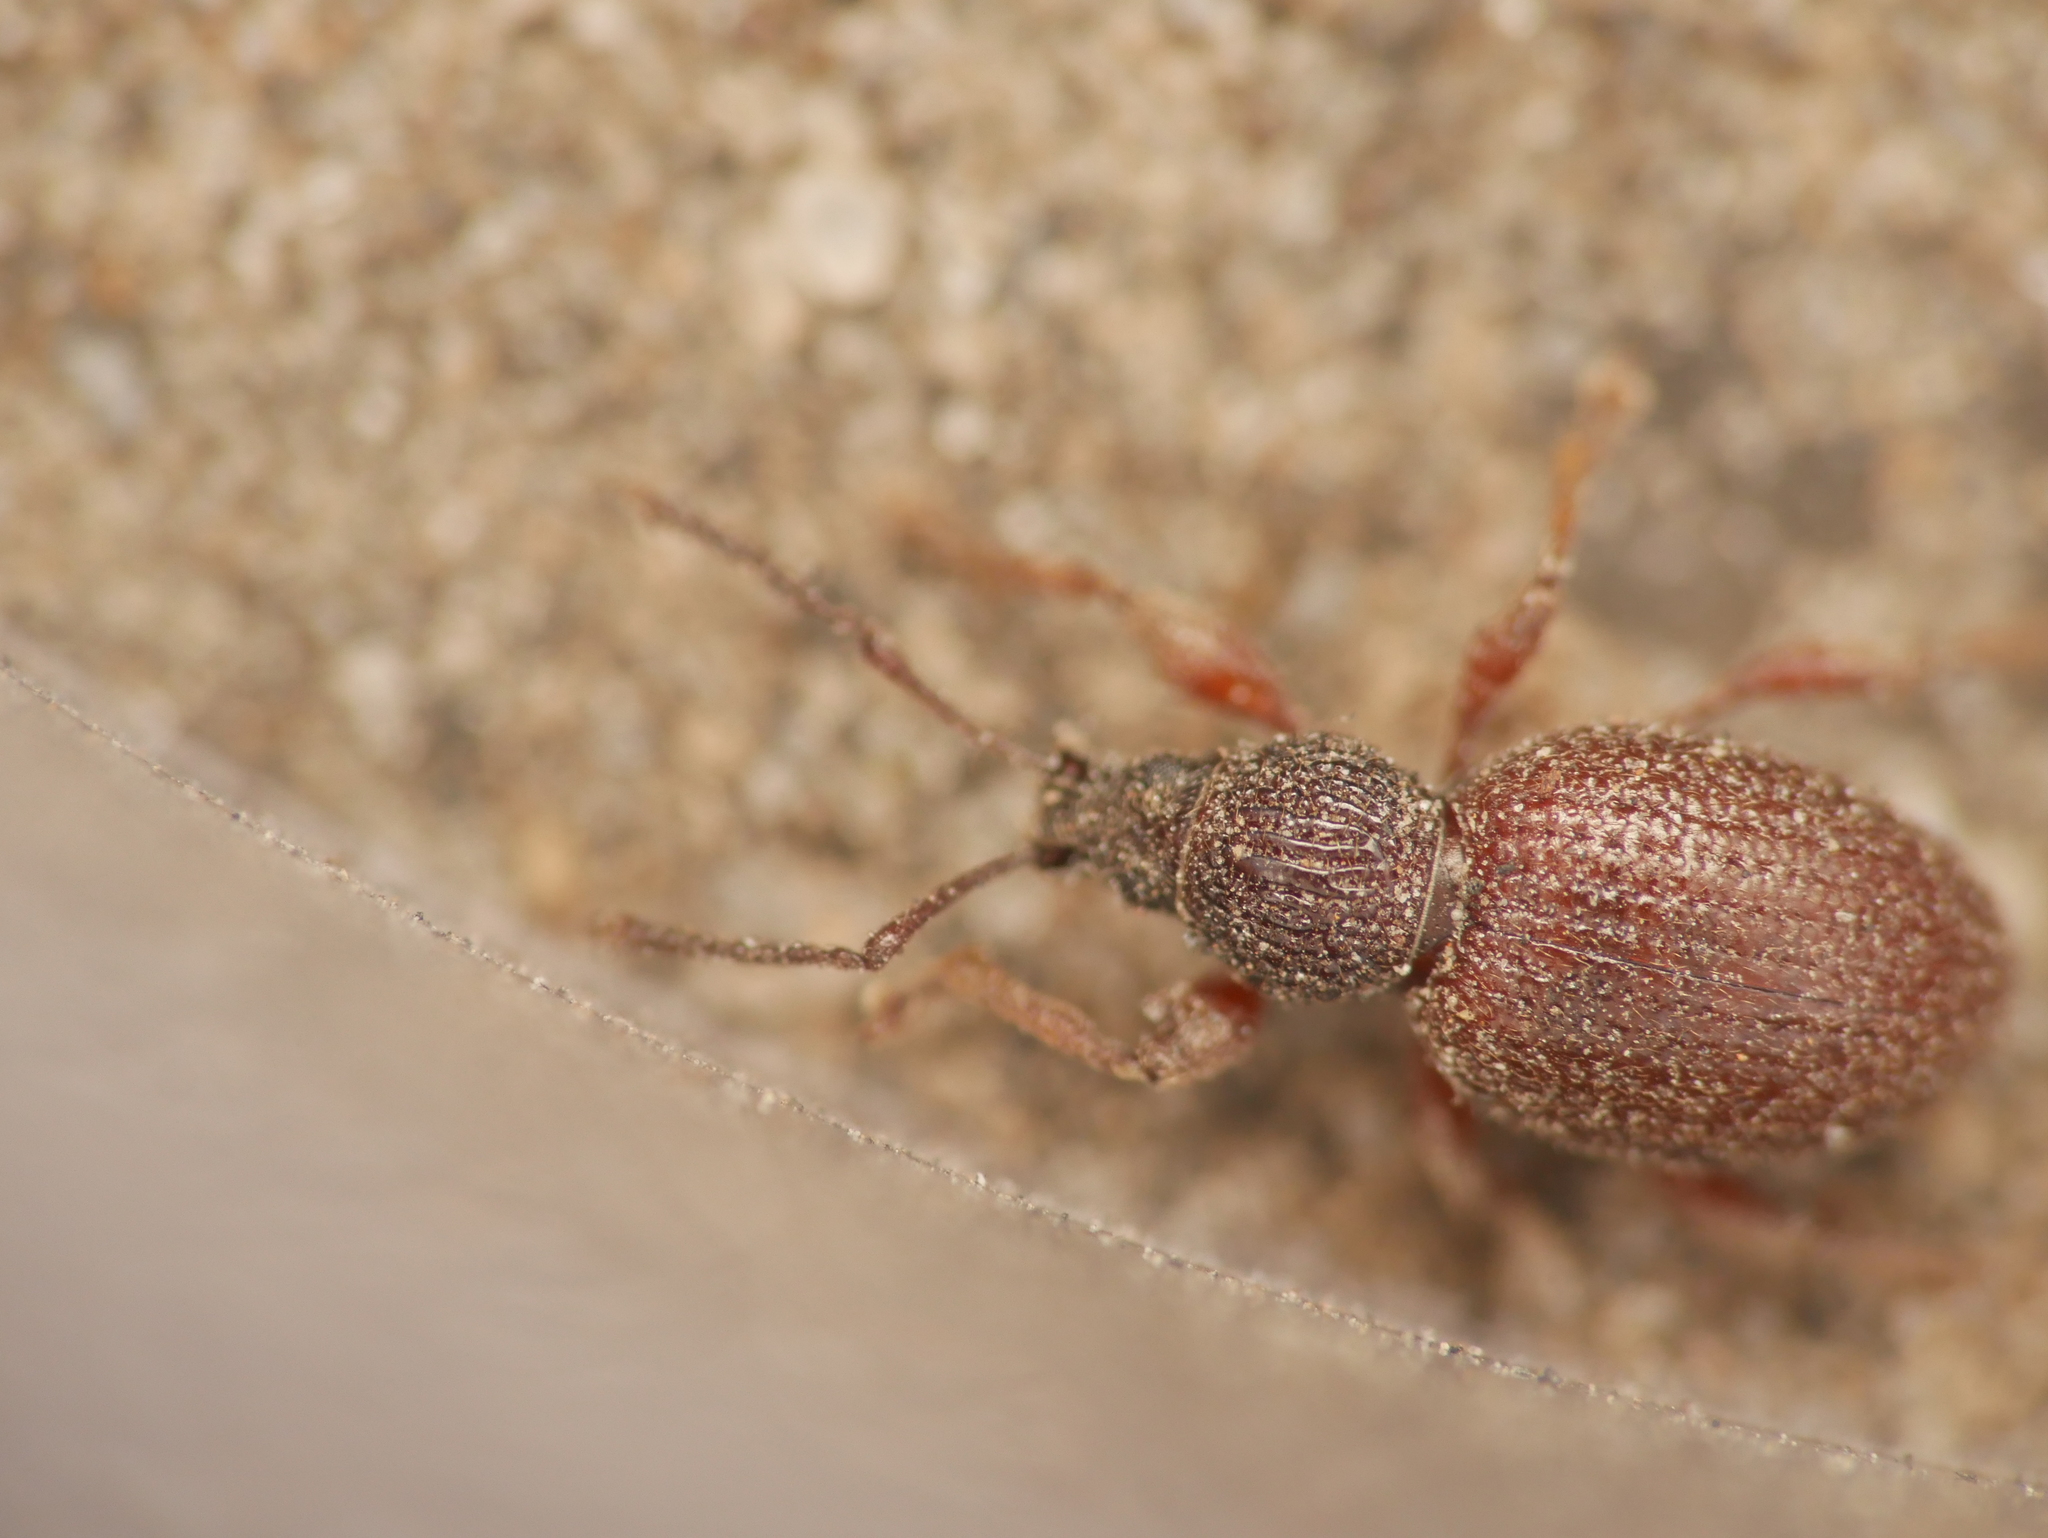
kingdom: Animalia
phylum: Arthropoda
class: Insecta
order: Coleoptera
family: Curculionidae
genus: Otiorhynchus
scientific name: Otiorhynchus ovatus
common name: Strawberry root weevil
